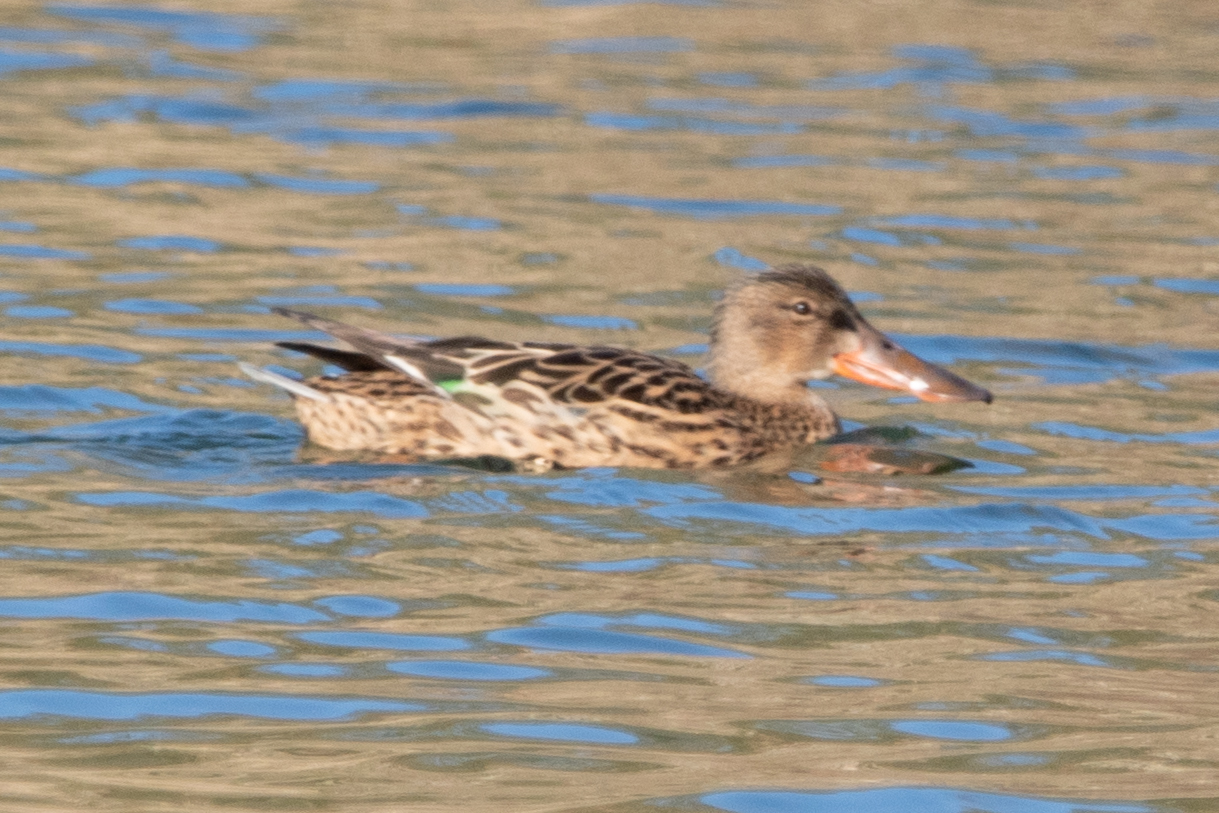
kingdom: Animalia
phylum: Chordata
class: Aves
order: Anseriformes
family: Anatidae
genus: Spatula
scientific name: Spatula clypeata
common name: Northern shoveler
